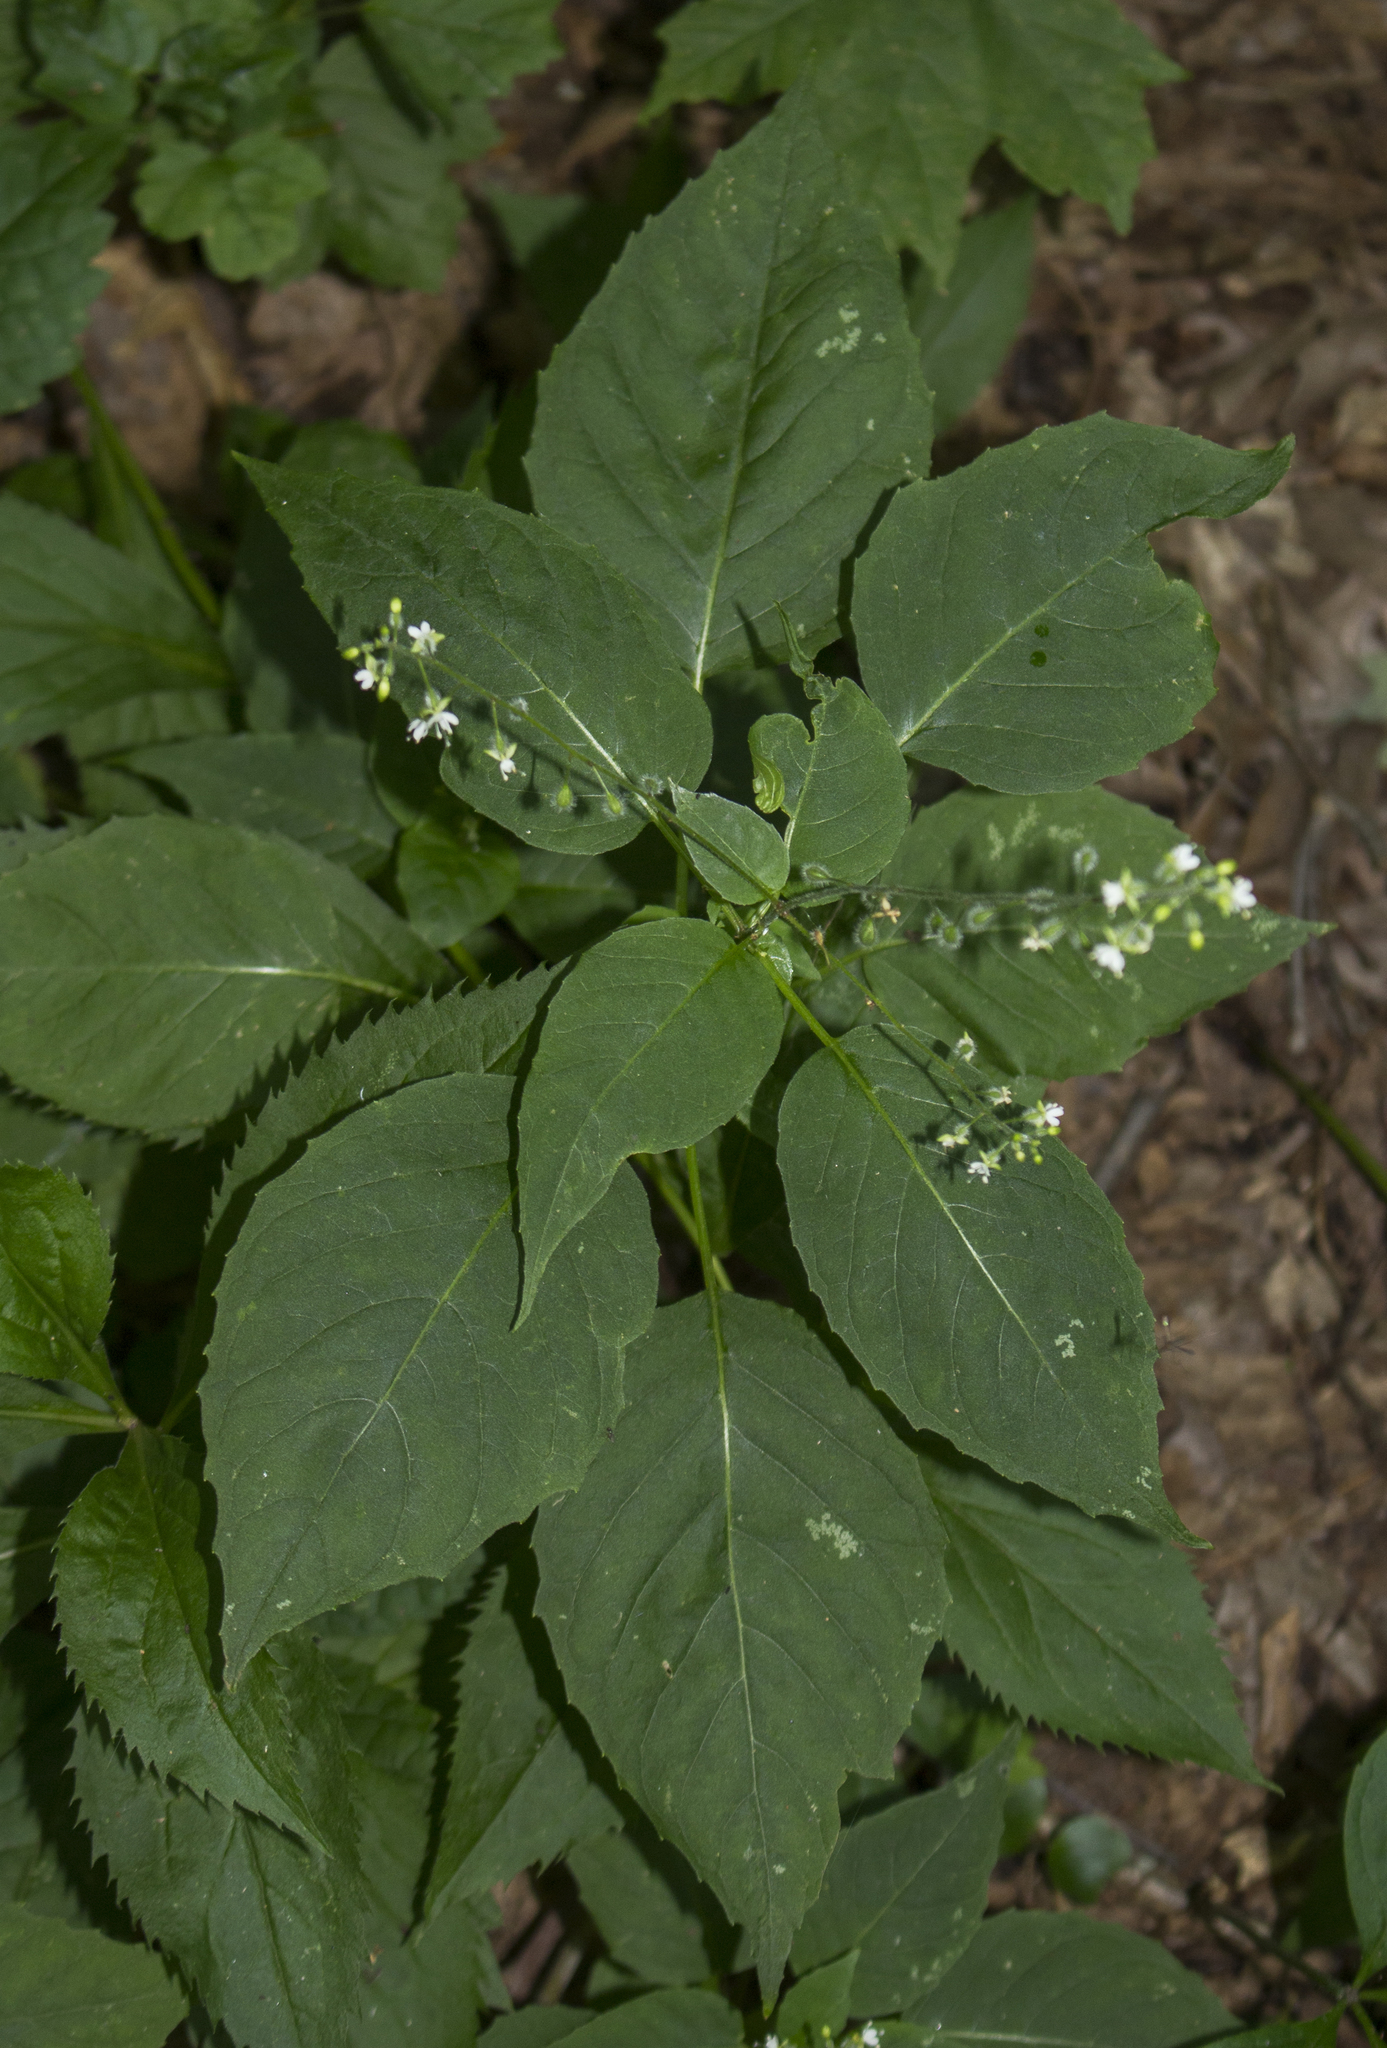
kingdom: Plantae
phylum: Tracheophyta
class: Magnoliopsida
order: Myrtales
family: Onagraceae
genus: Circaea
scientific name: Circaea canadensis
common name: Broad-leaved enchanter's nightshade
